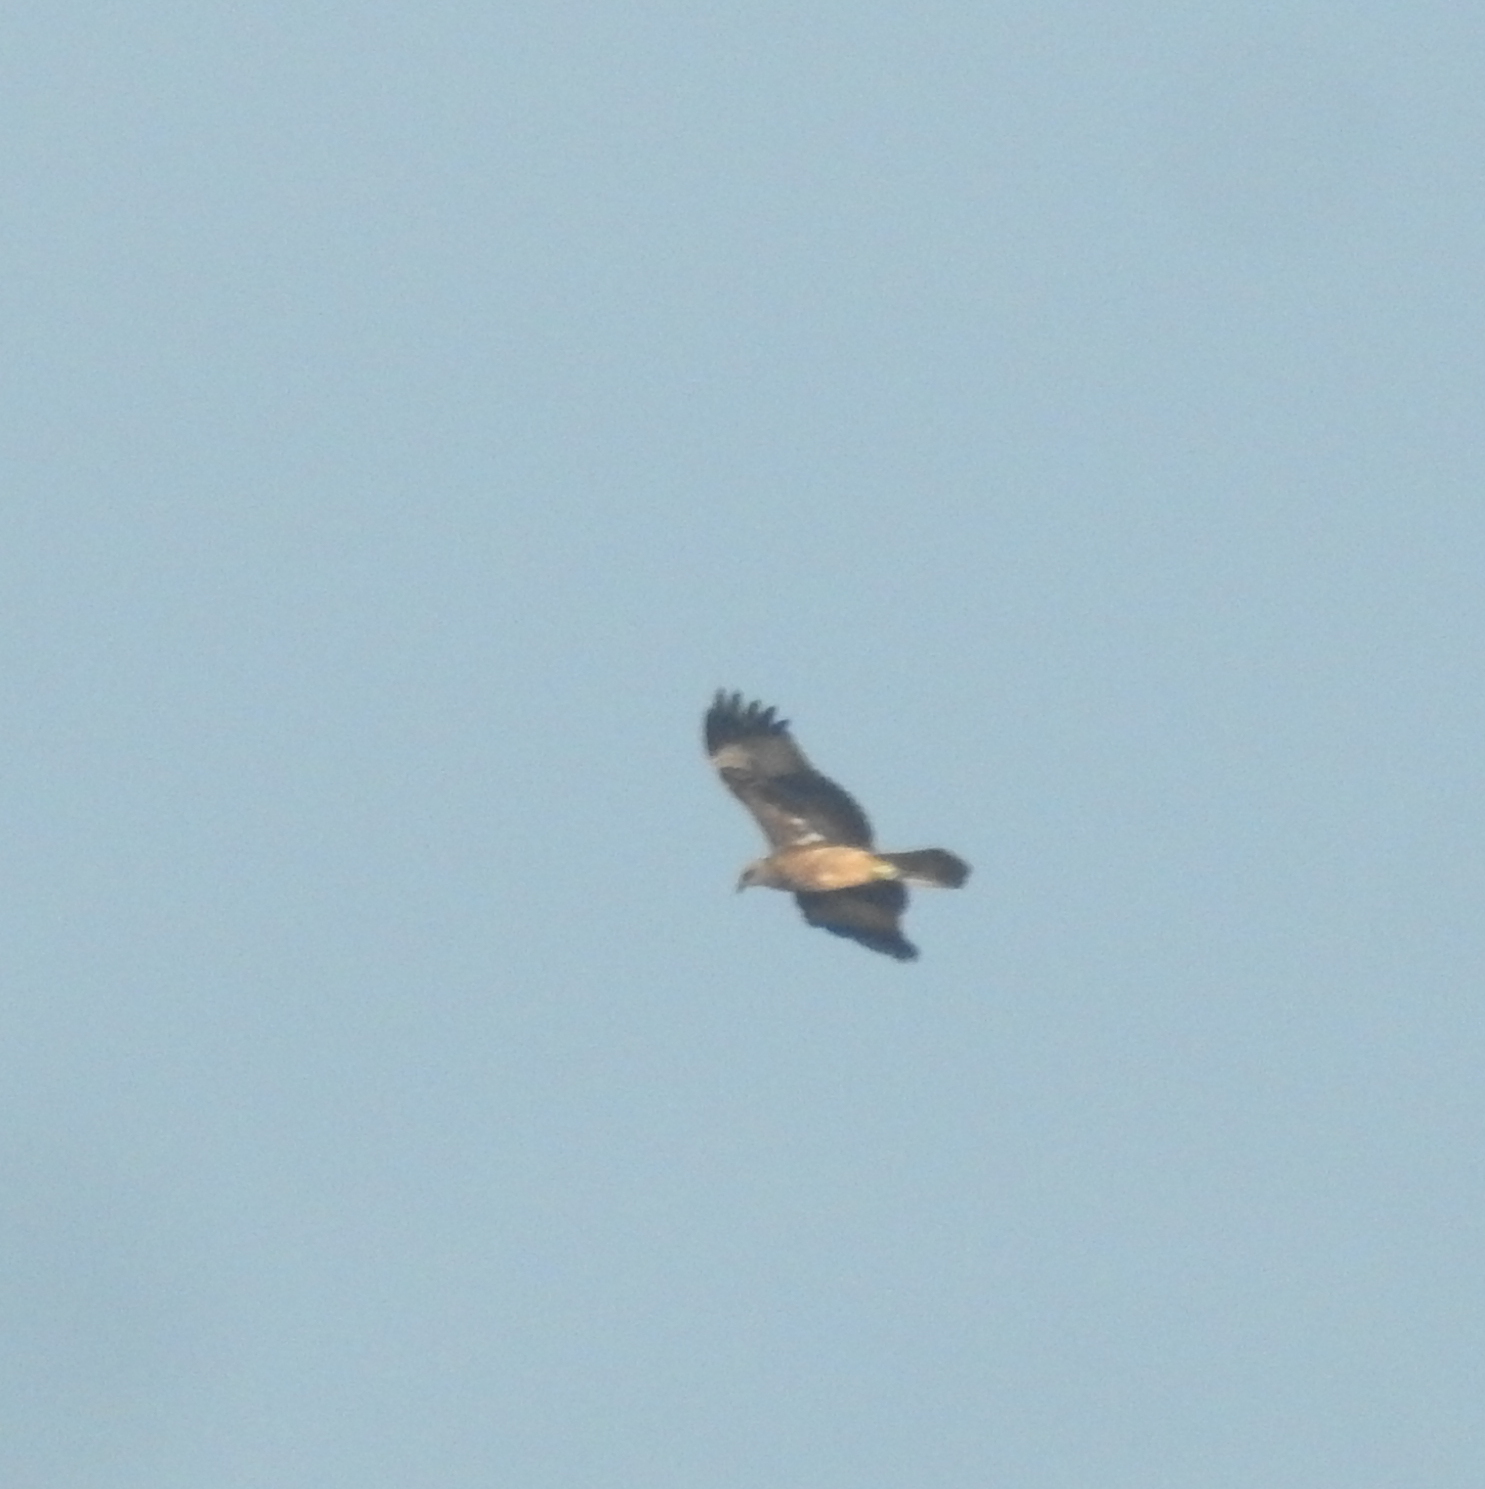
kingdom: Animalia
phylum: Chordata
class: Aves
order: Accipitriformes
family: Accipitridae
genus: Milvus
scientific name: Milvus migrans
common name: Black kite
